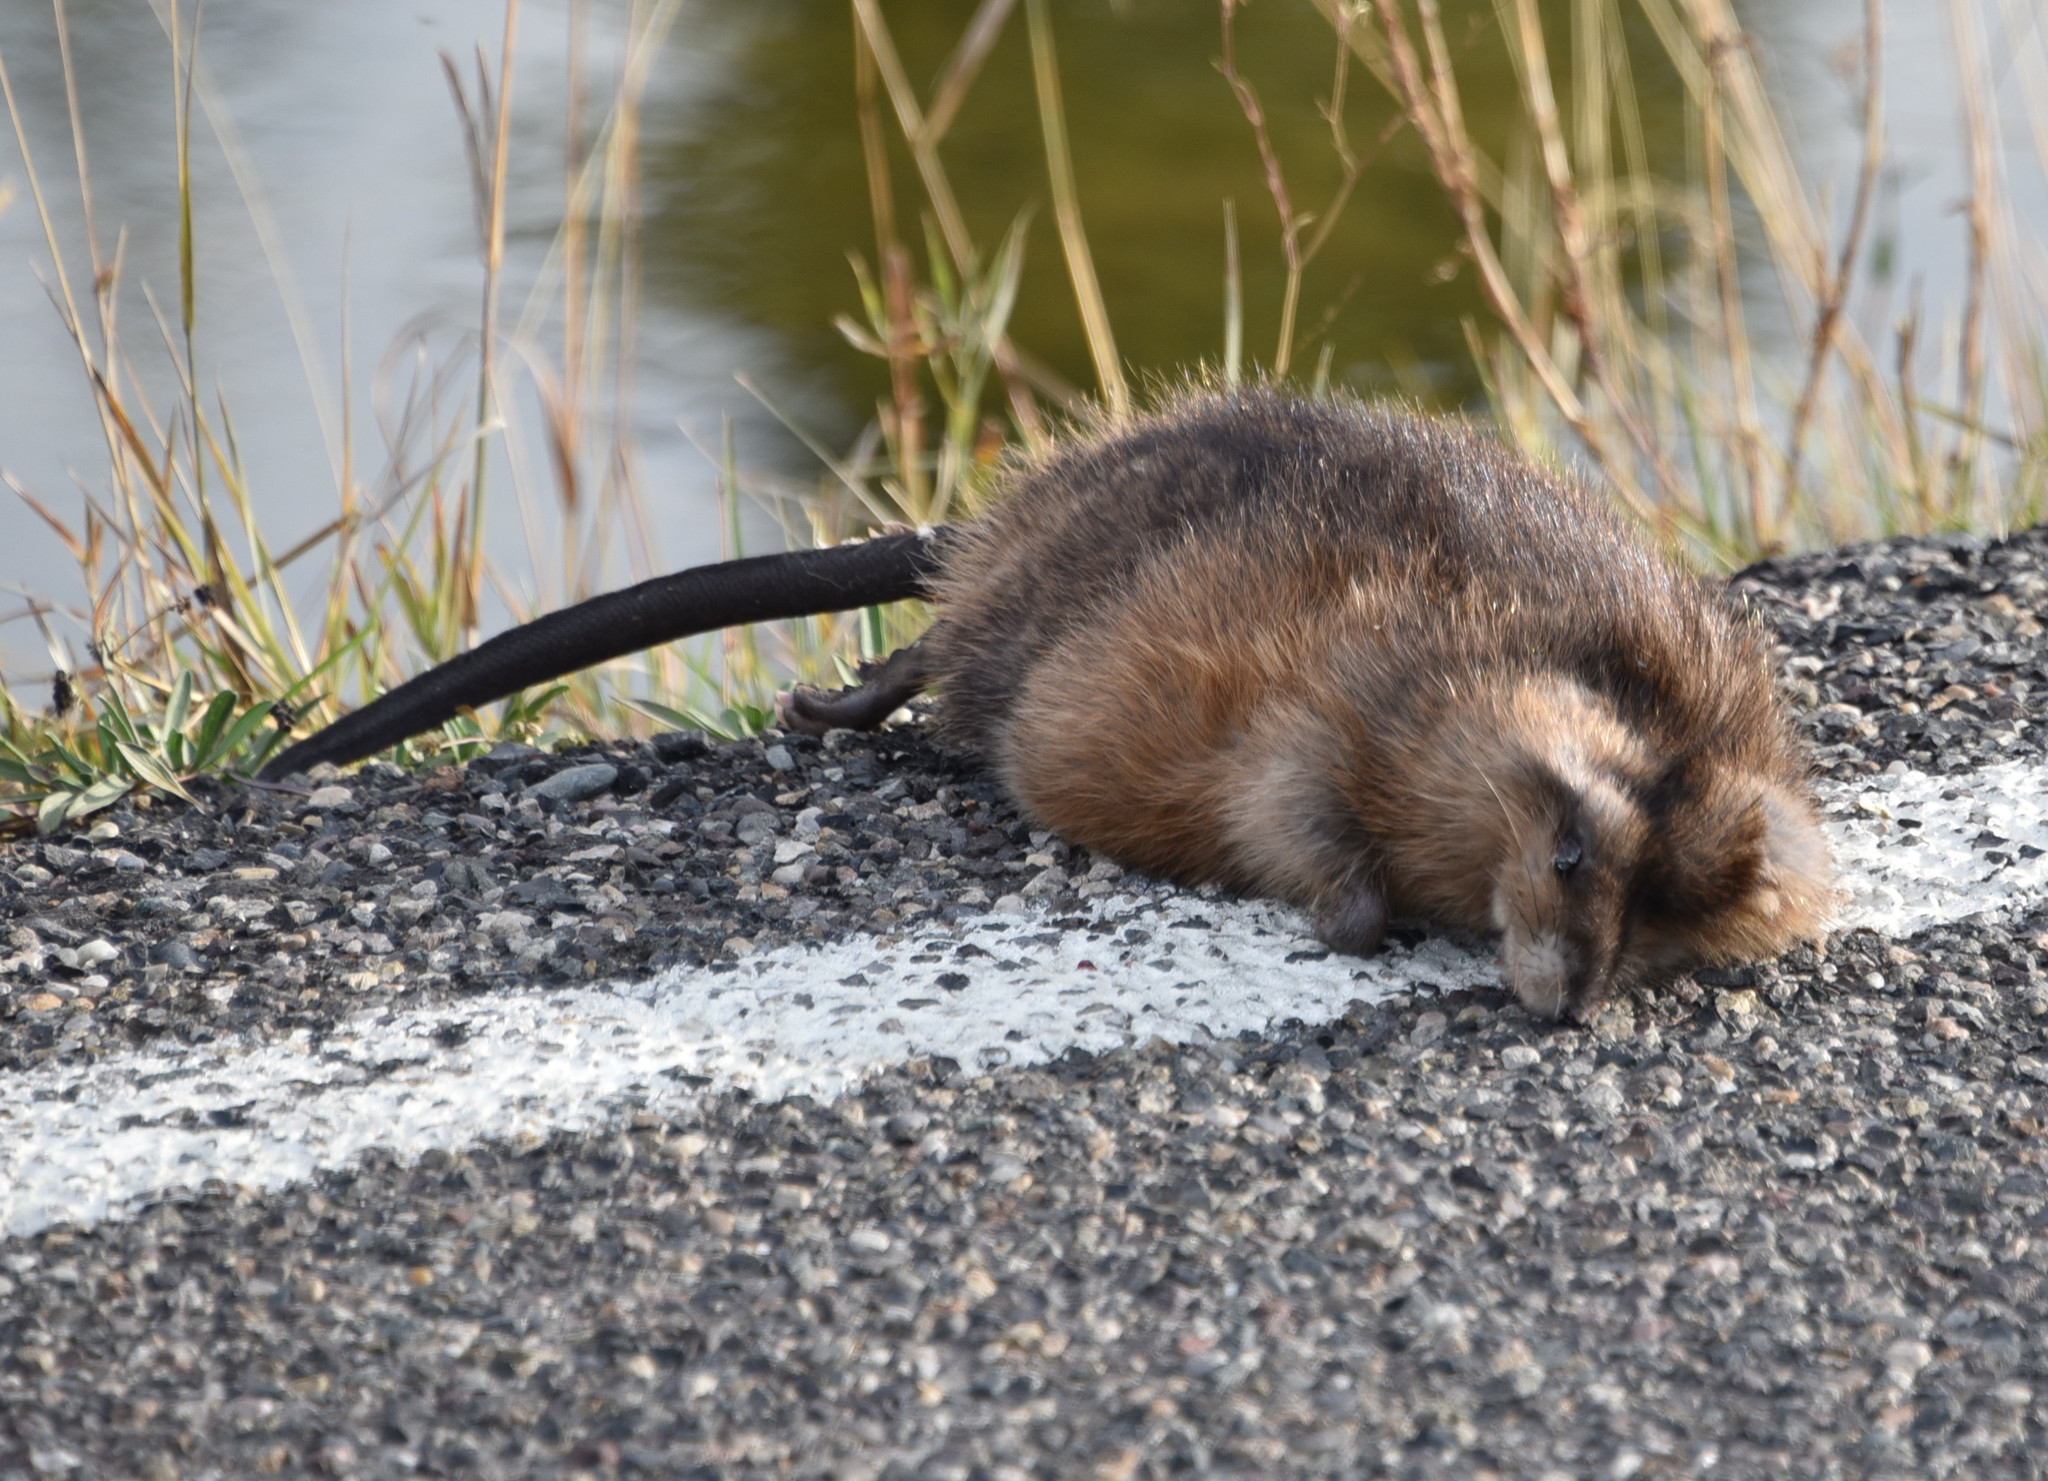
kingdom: Animalia
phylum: Chordata
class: Mammalia
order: Rodentia
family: Cricetidae
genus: Ondatra
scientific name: Ondatra zibethicus
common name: Muskrat
